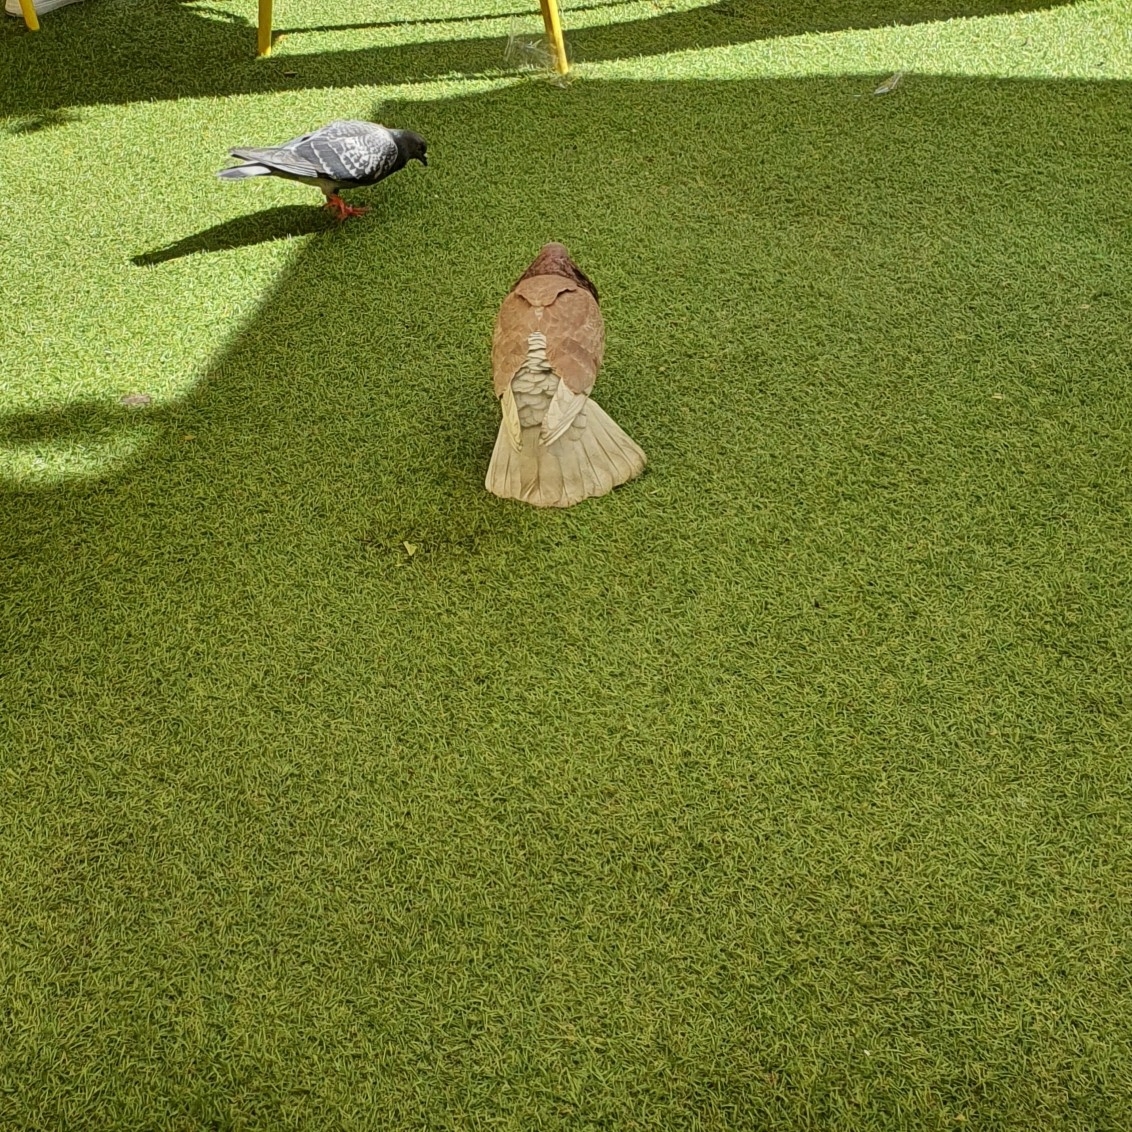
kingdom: Animalia
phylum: Chordata
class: Aves
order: Columbiformes
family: Columbidae
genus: Columba
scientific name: Columba livia
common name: Rock pigeon
